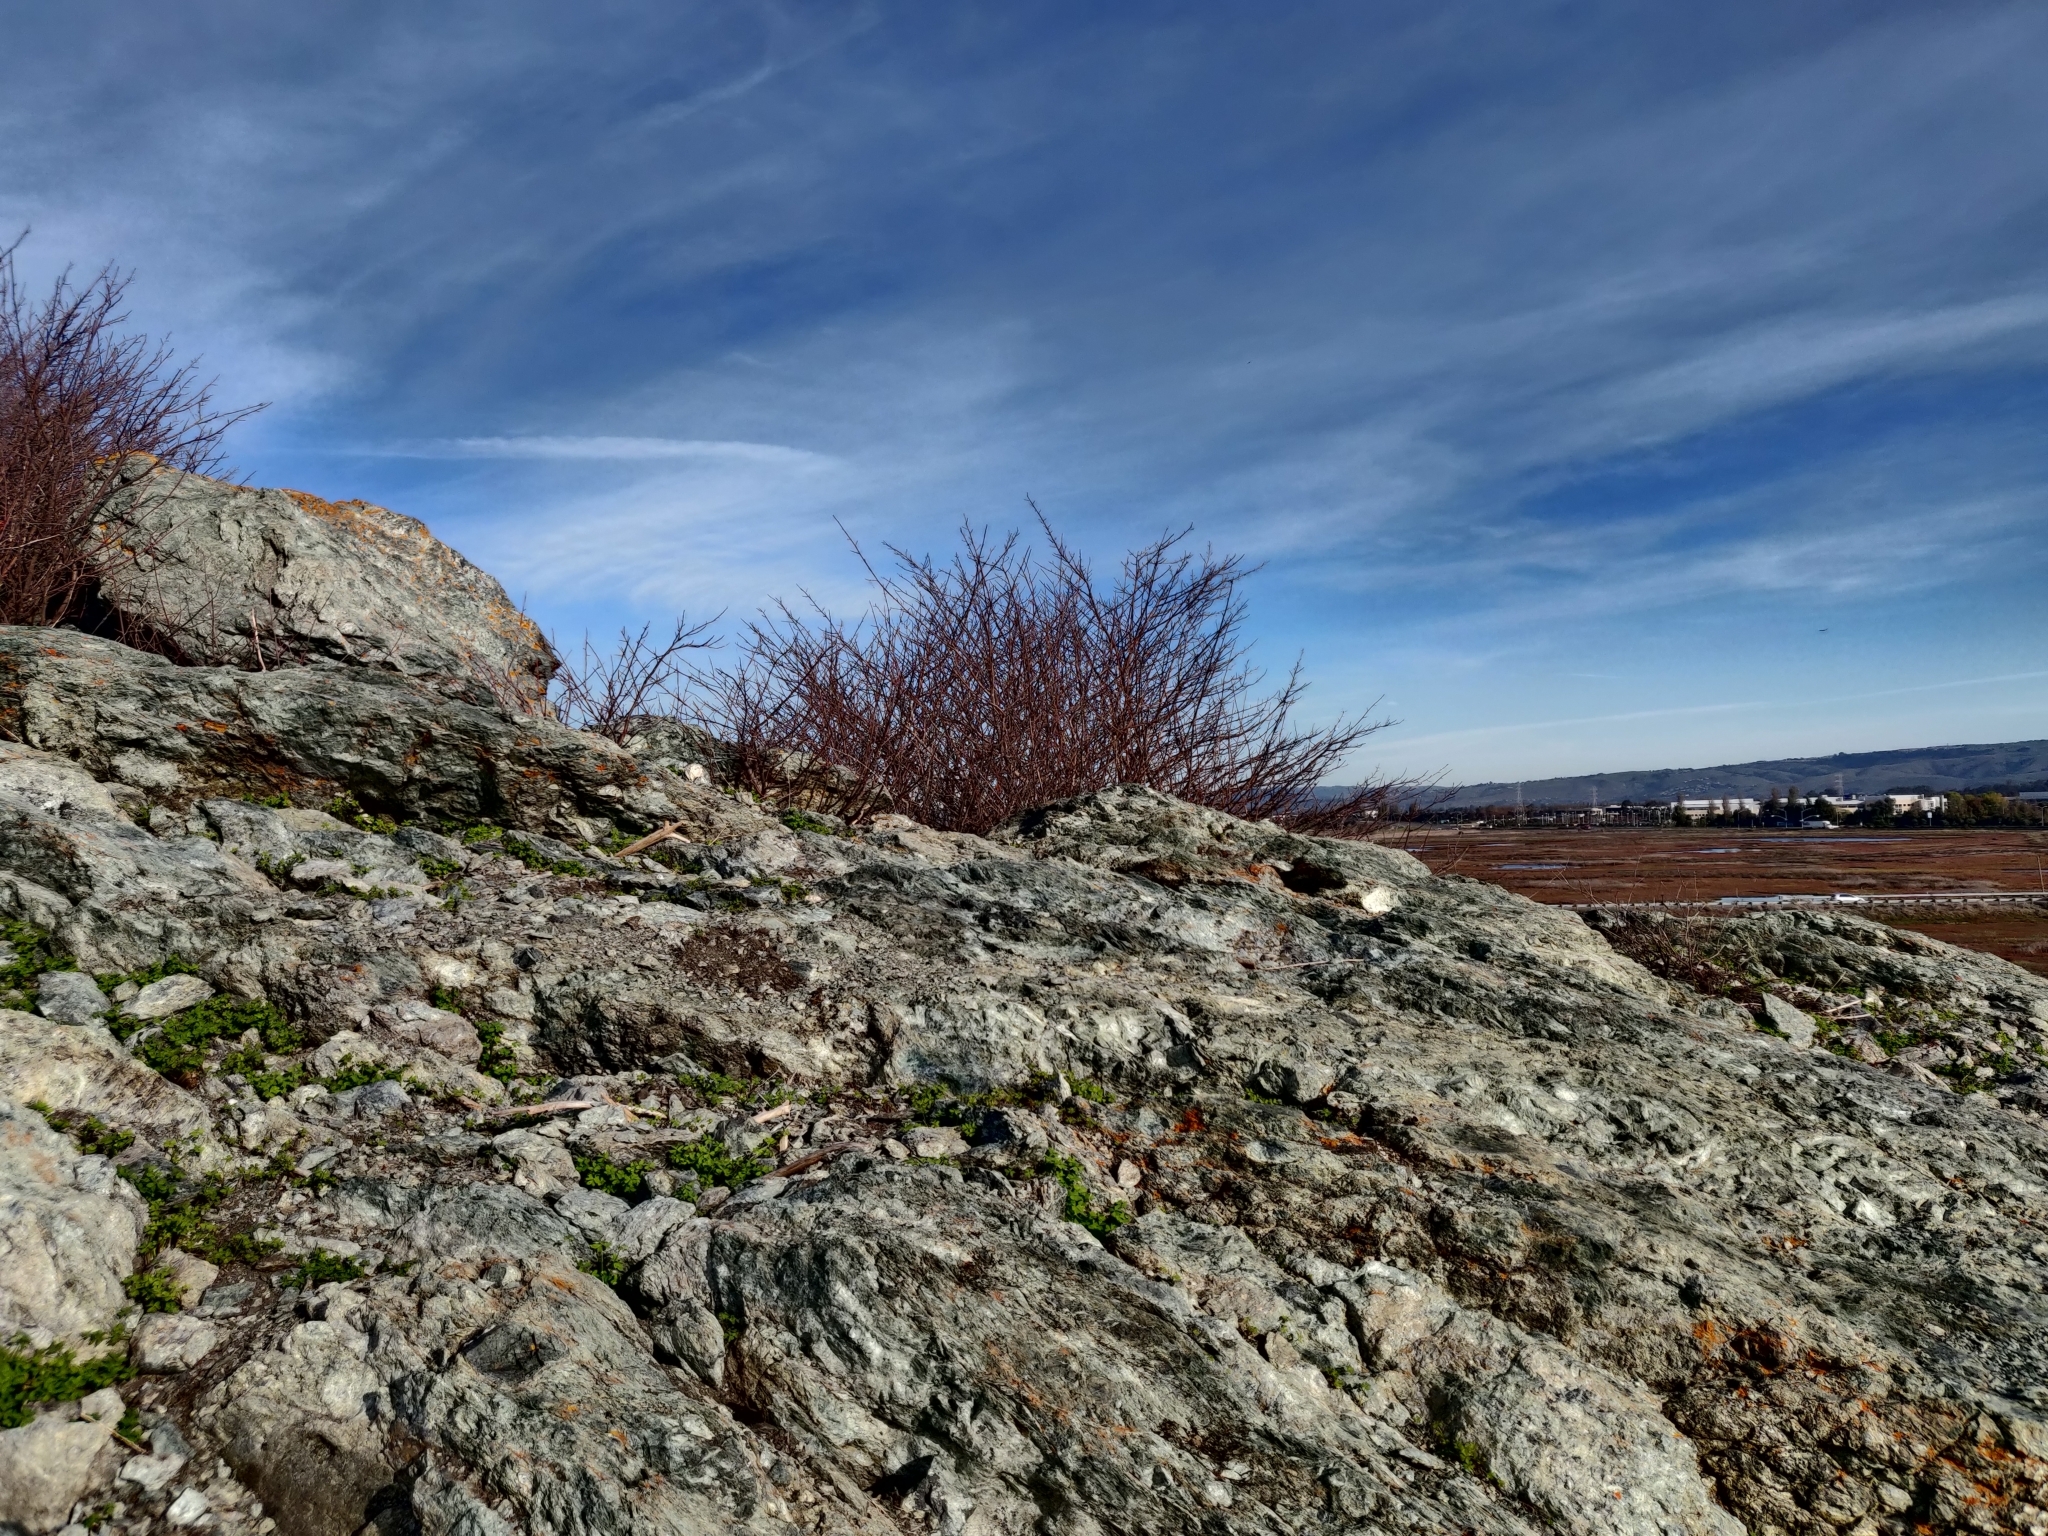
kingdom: Plantae
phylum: Tracheophyta
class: Magnoliopsida
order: Oxalidales
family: Oxalidaceae
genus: Oxalis
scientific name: Oxalis pes-caprae
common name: Bermuda-buttercup
